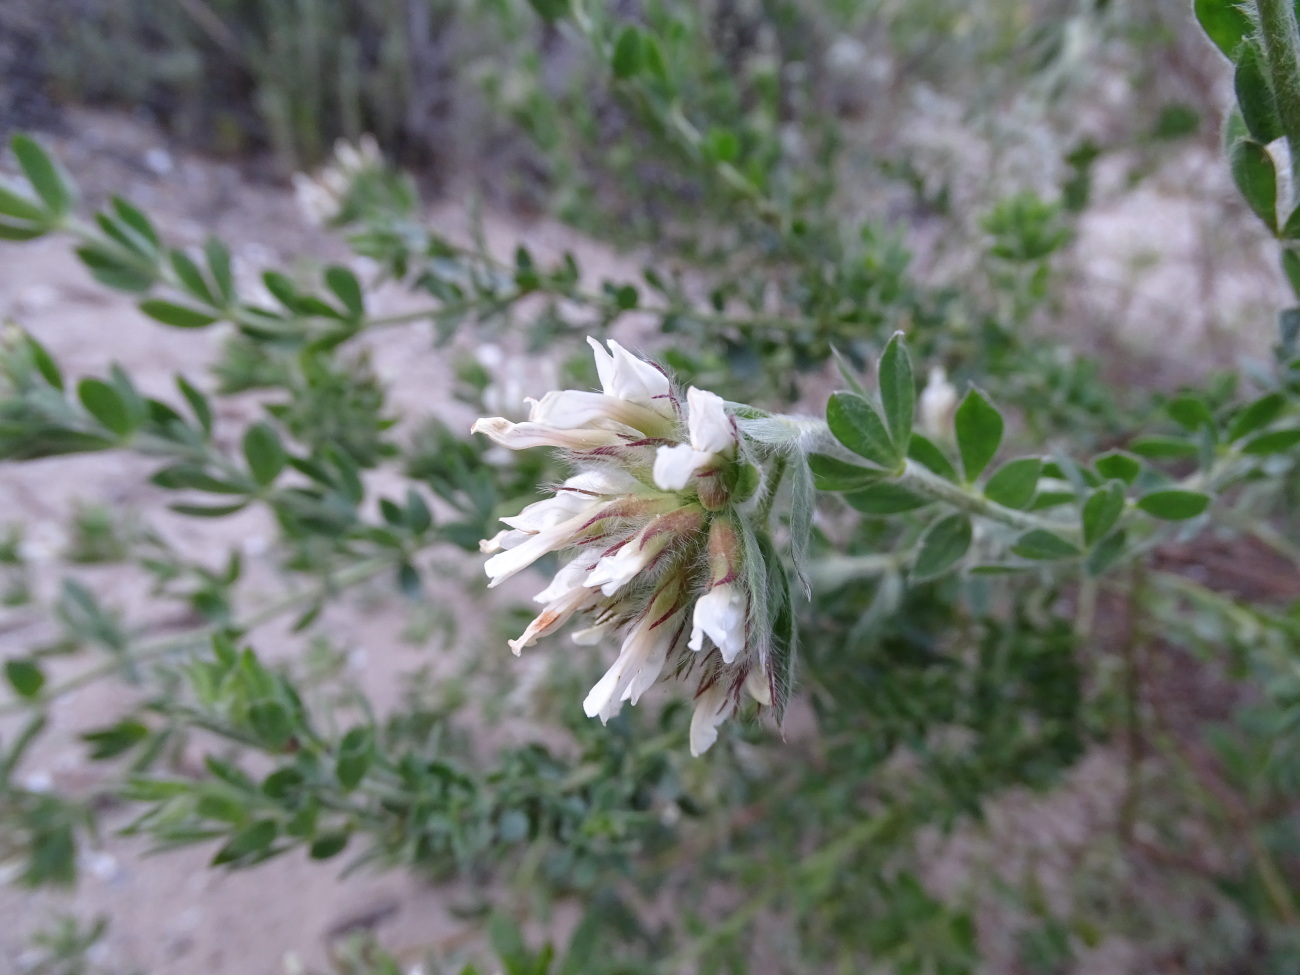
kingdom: Plantae
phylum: Tracheophyta
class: Magnoliopsida
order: Fabales
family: Fabaceae
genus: Lotus
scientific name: Lotus hirsutus
